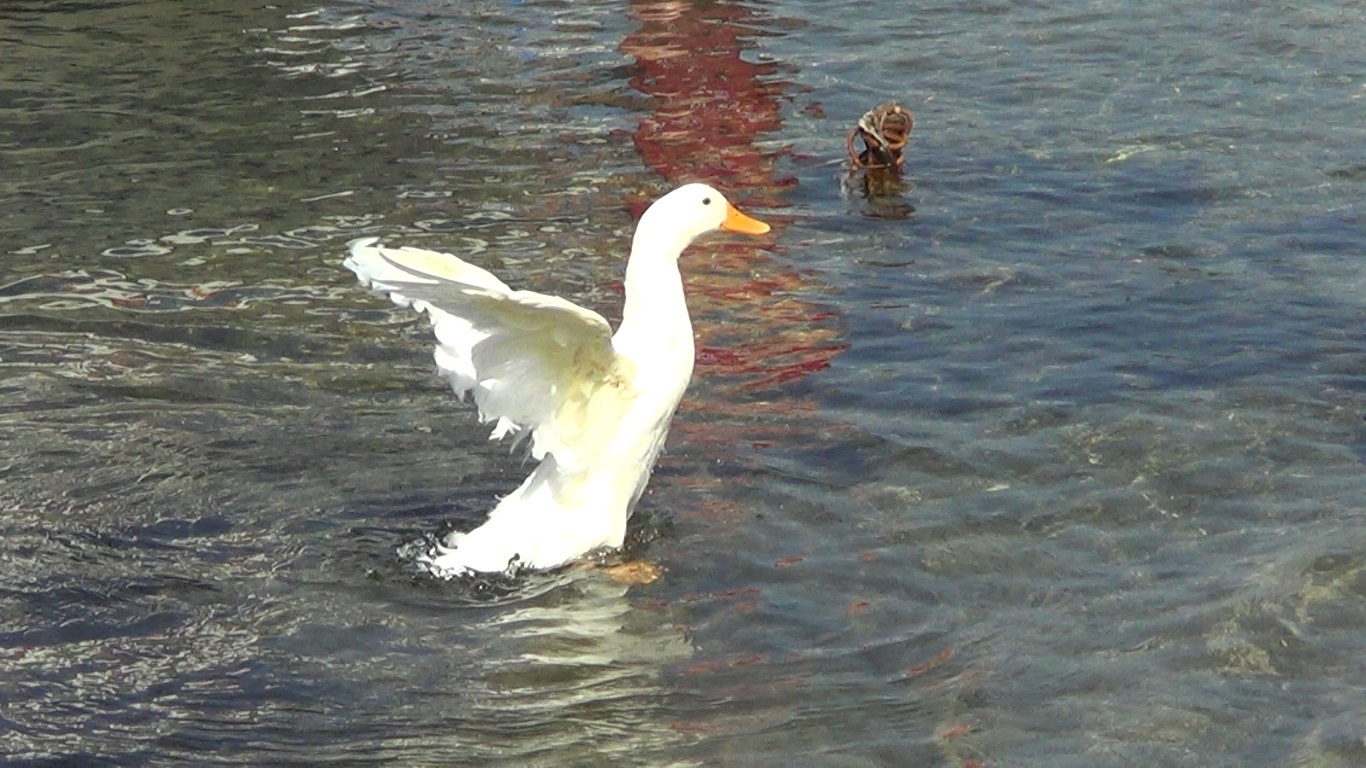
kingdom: Animalia
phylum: Chordata
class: Aves
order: Anseriformes
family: Anatidae
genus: Anas
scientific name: Anas platyrhynchos
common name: Mallard
